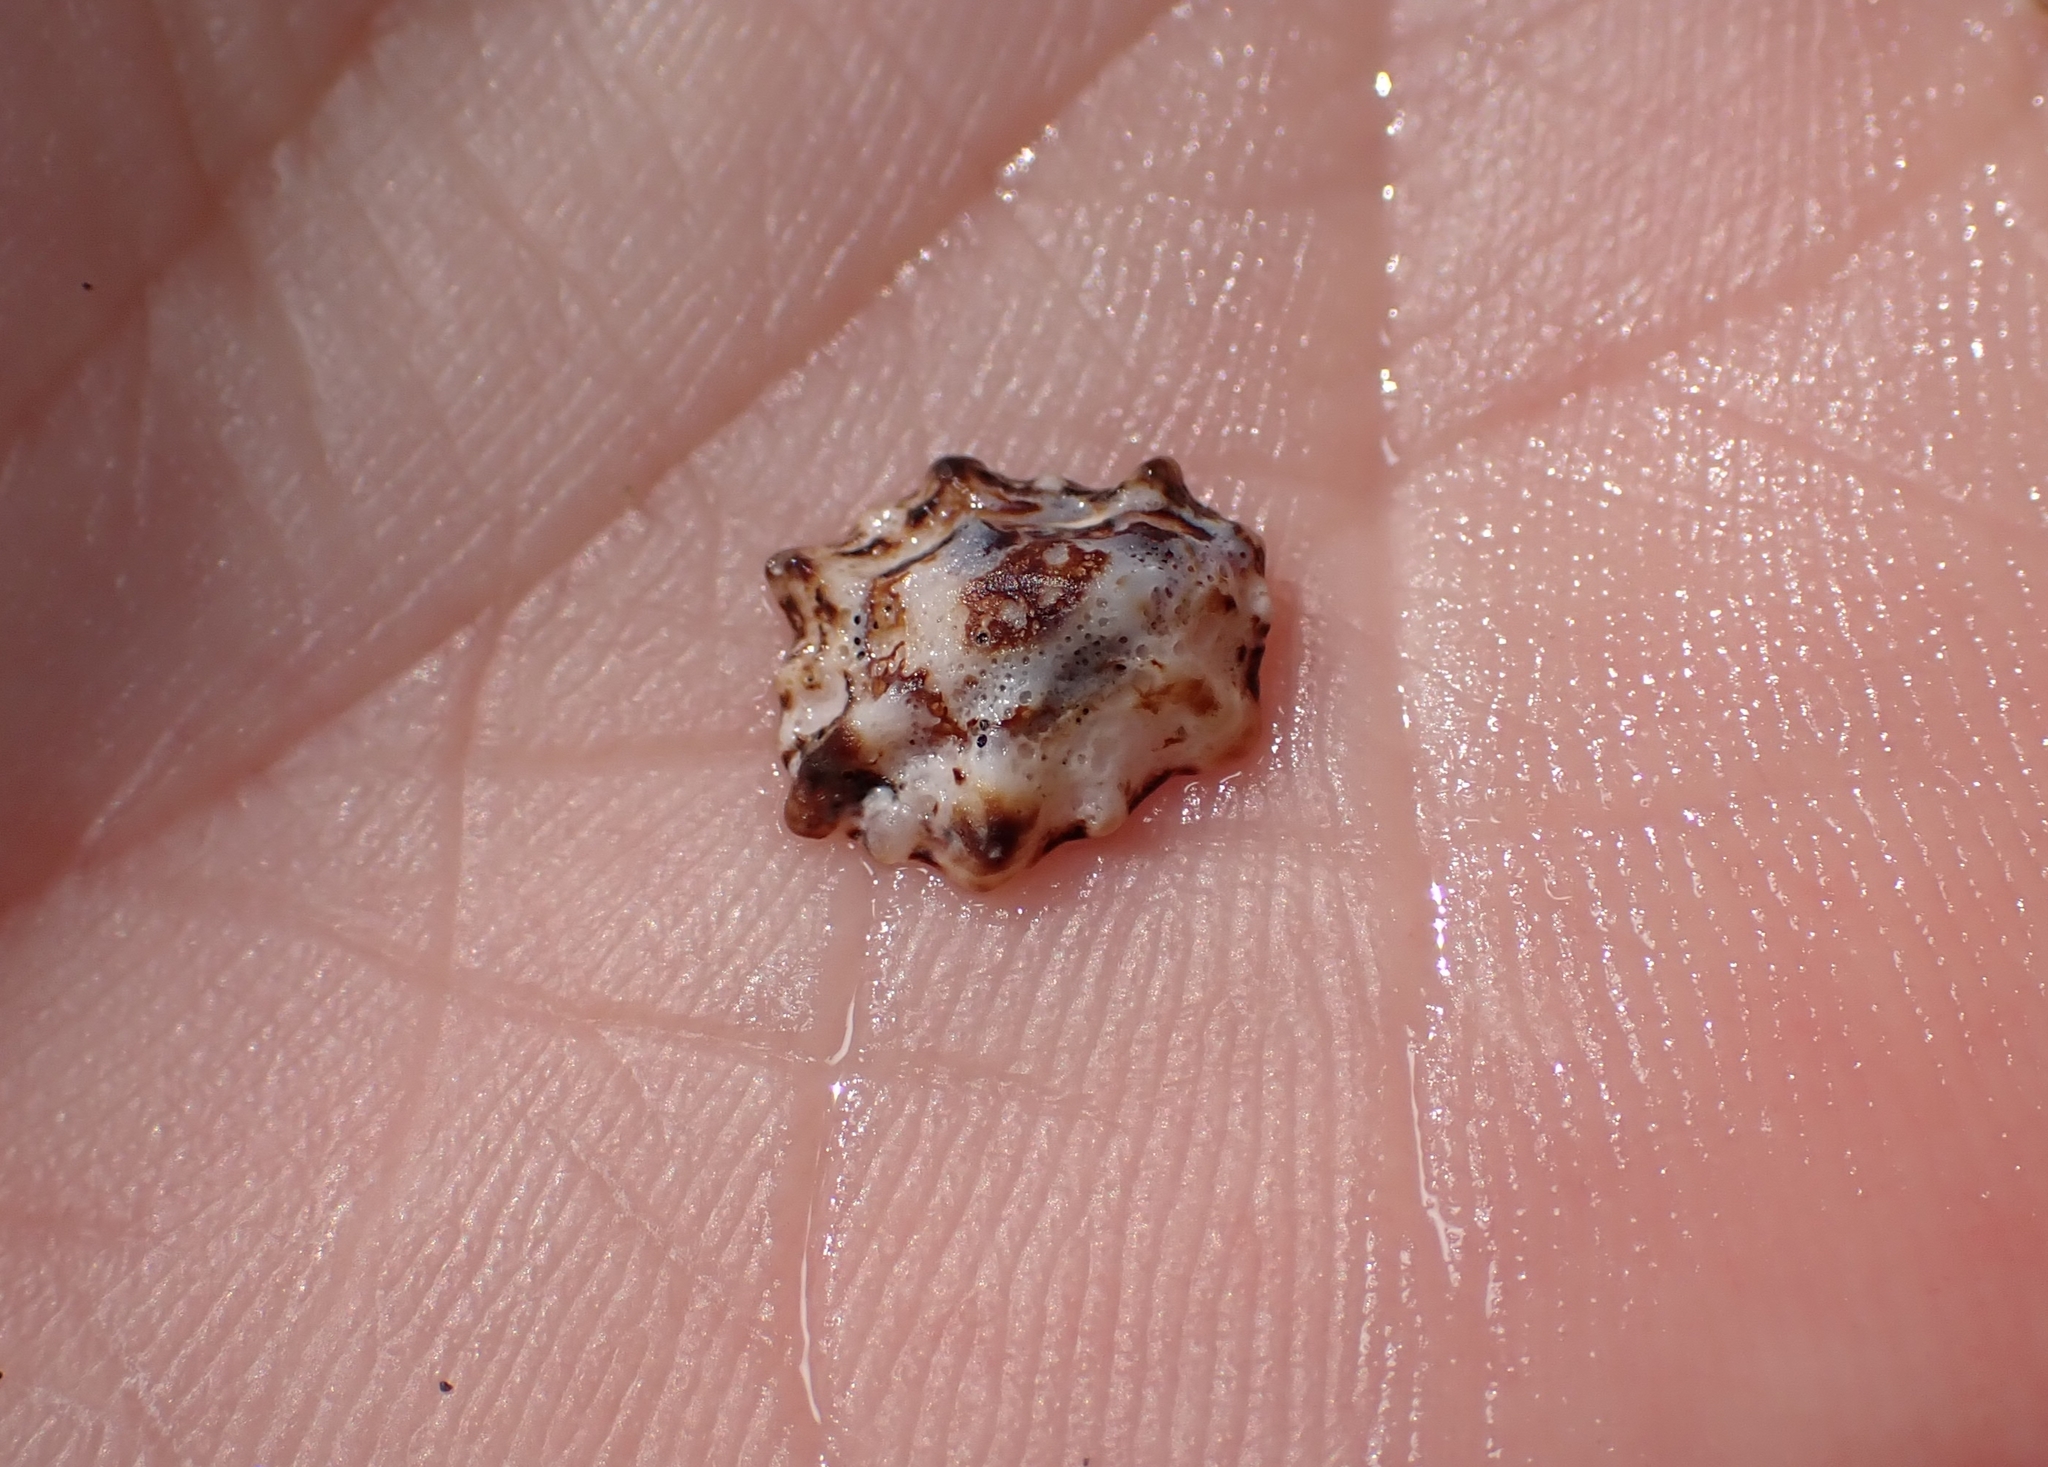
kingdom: Animalia
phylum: Mollusca
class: Gastropoda
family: Lottiidae
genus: Patelloida
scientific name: Patelloida corticata
